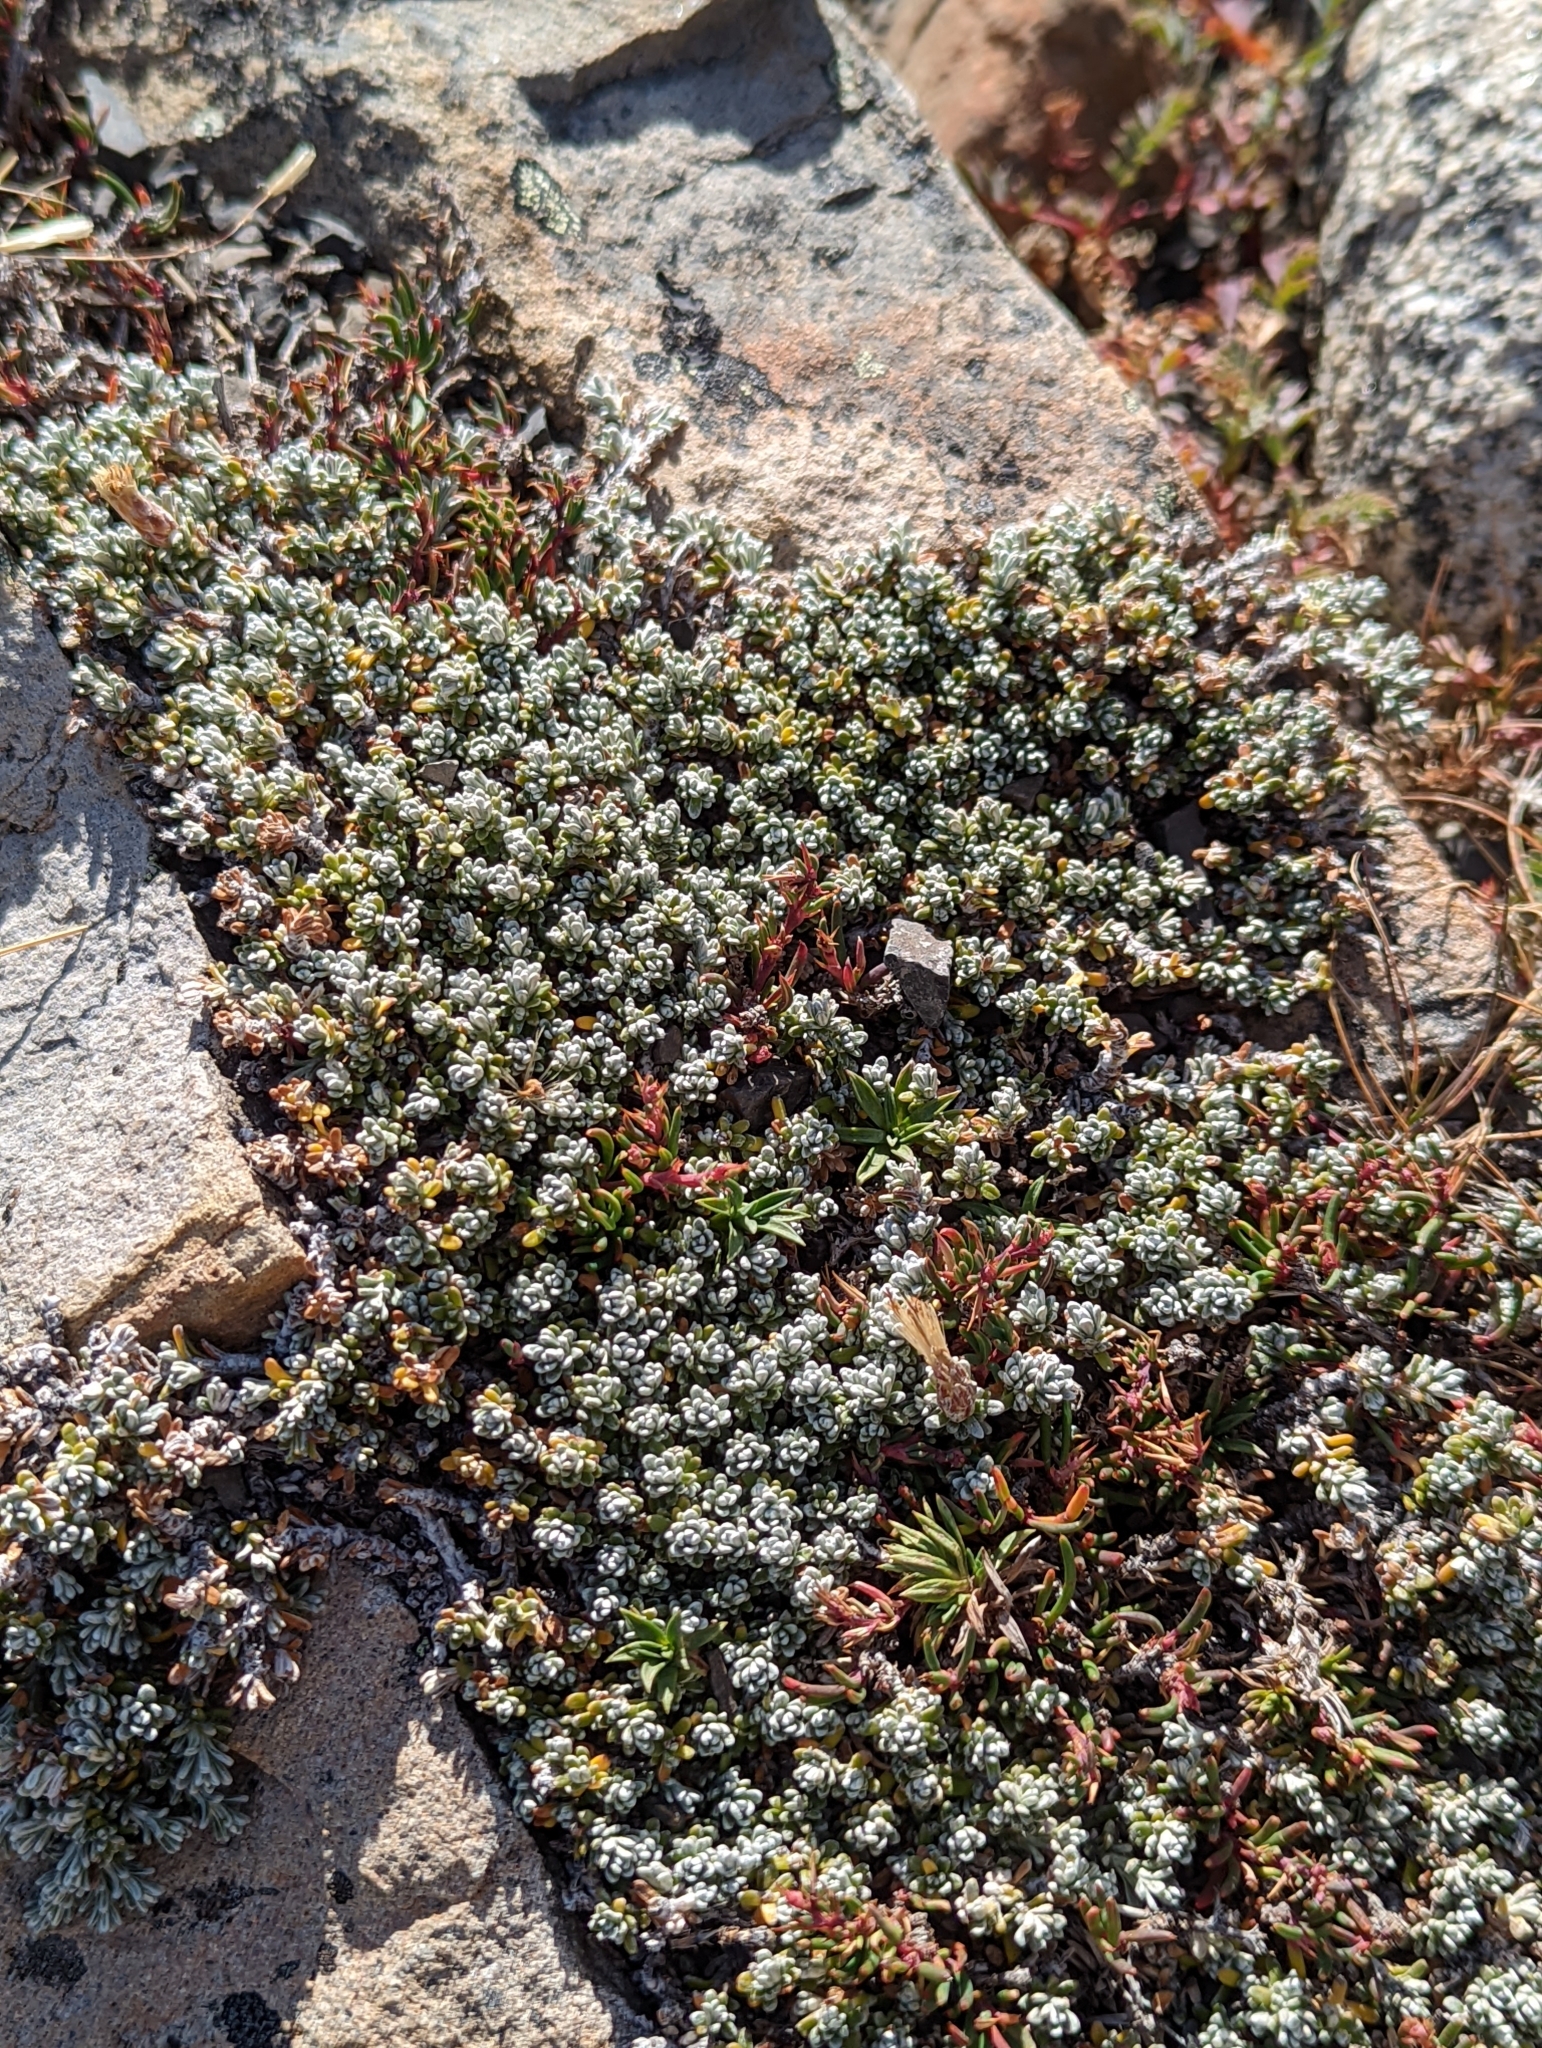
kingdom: Plantae
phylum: Tracheophyta
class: Magnoliopsida
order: Asterales
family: Asteraceae
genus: Nardophyllum
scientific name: Nardophyllum bryoides
